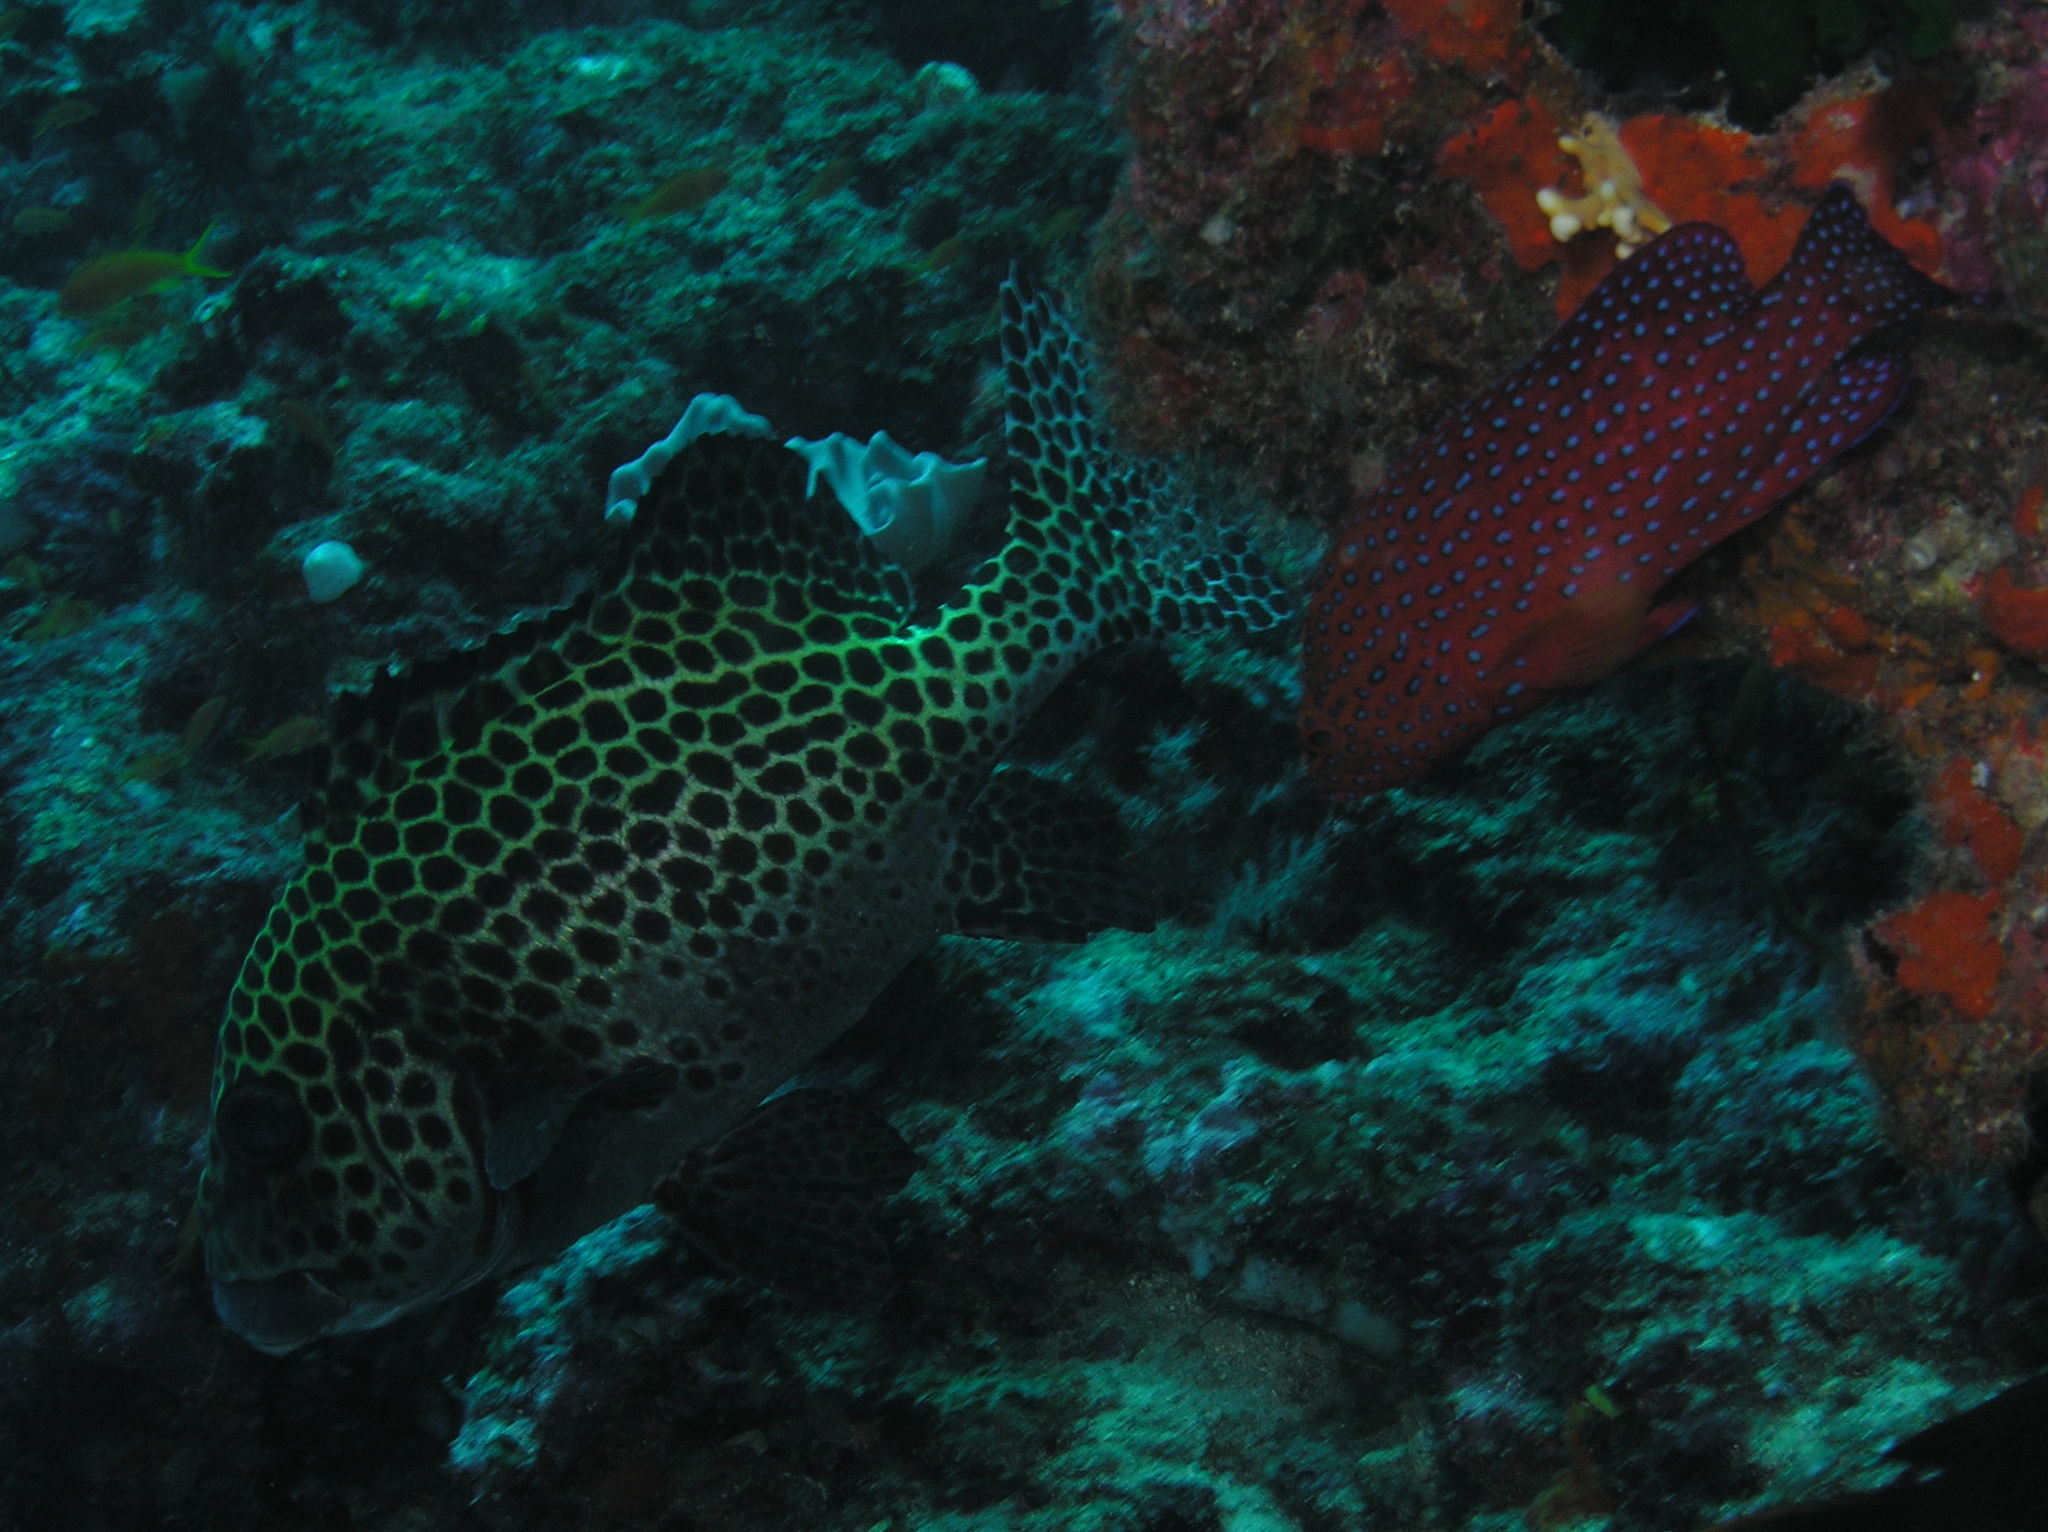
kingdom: Animalia
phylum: Chordata
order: Perciformes
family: Haemulidae
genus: Plectorhinchus
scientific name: Plectorhinchus chaetodonoides
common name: Harlequin sweetlips
